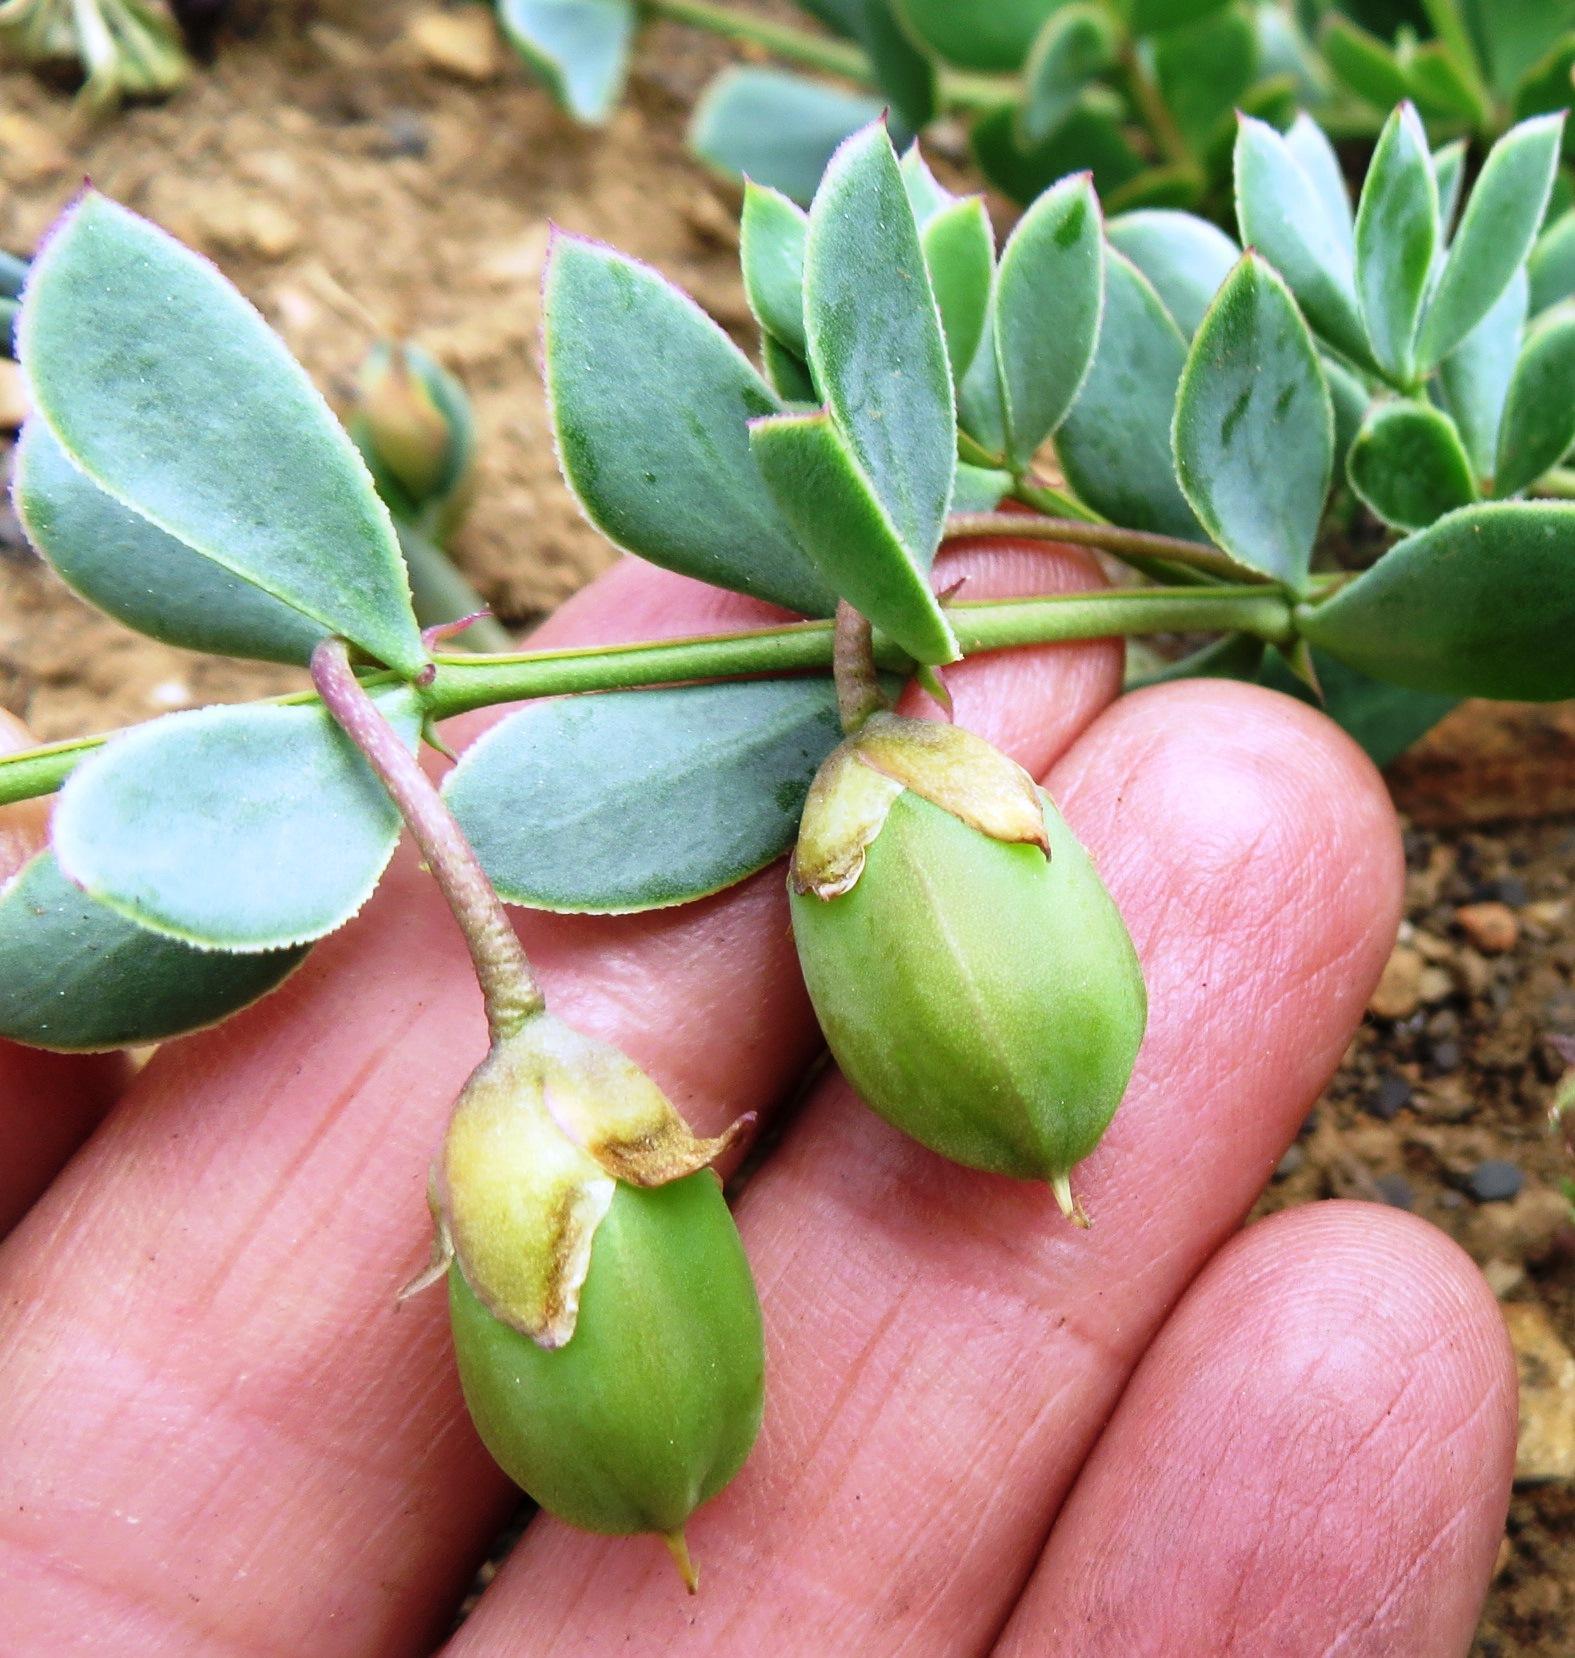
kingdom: Plantae
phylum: Tracheophyta
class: Magnoliopsida
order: Zygophyllales
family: Zygophyllaceae
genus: Roepera
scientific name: Roepera sessilifolia
